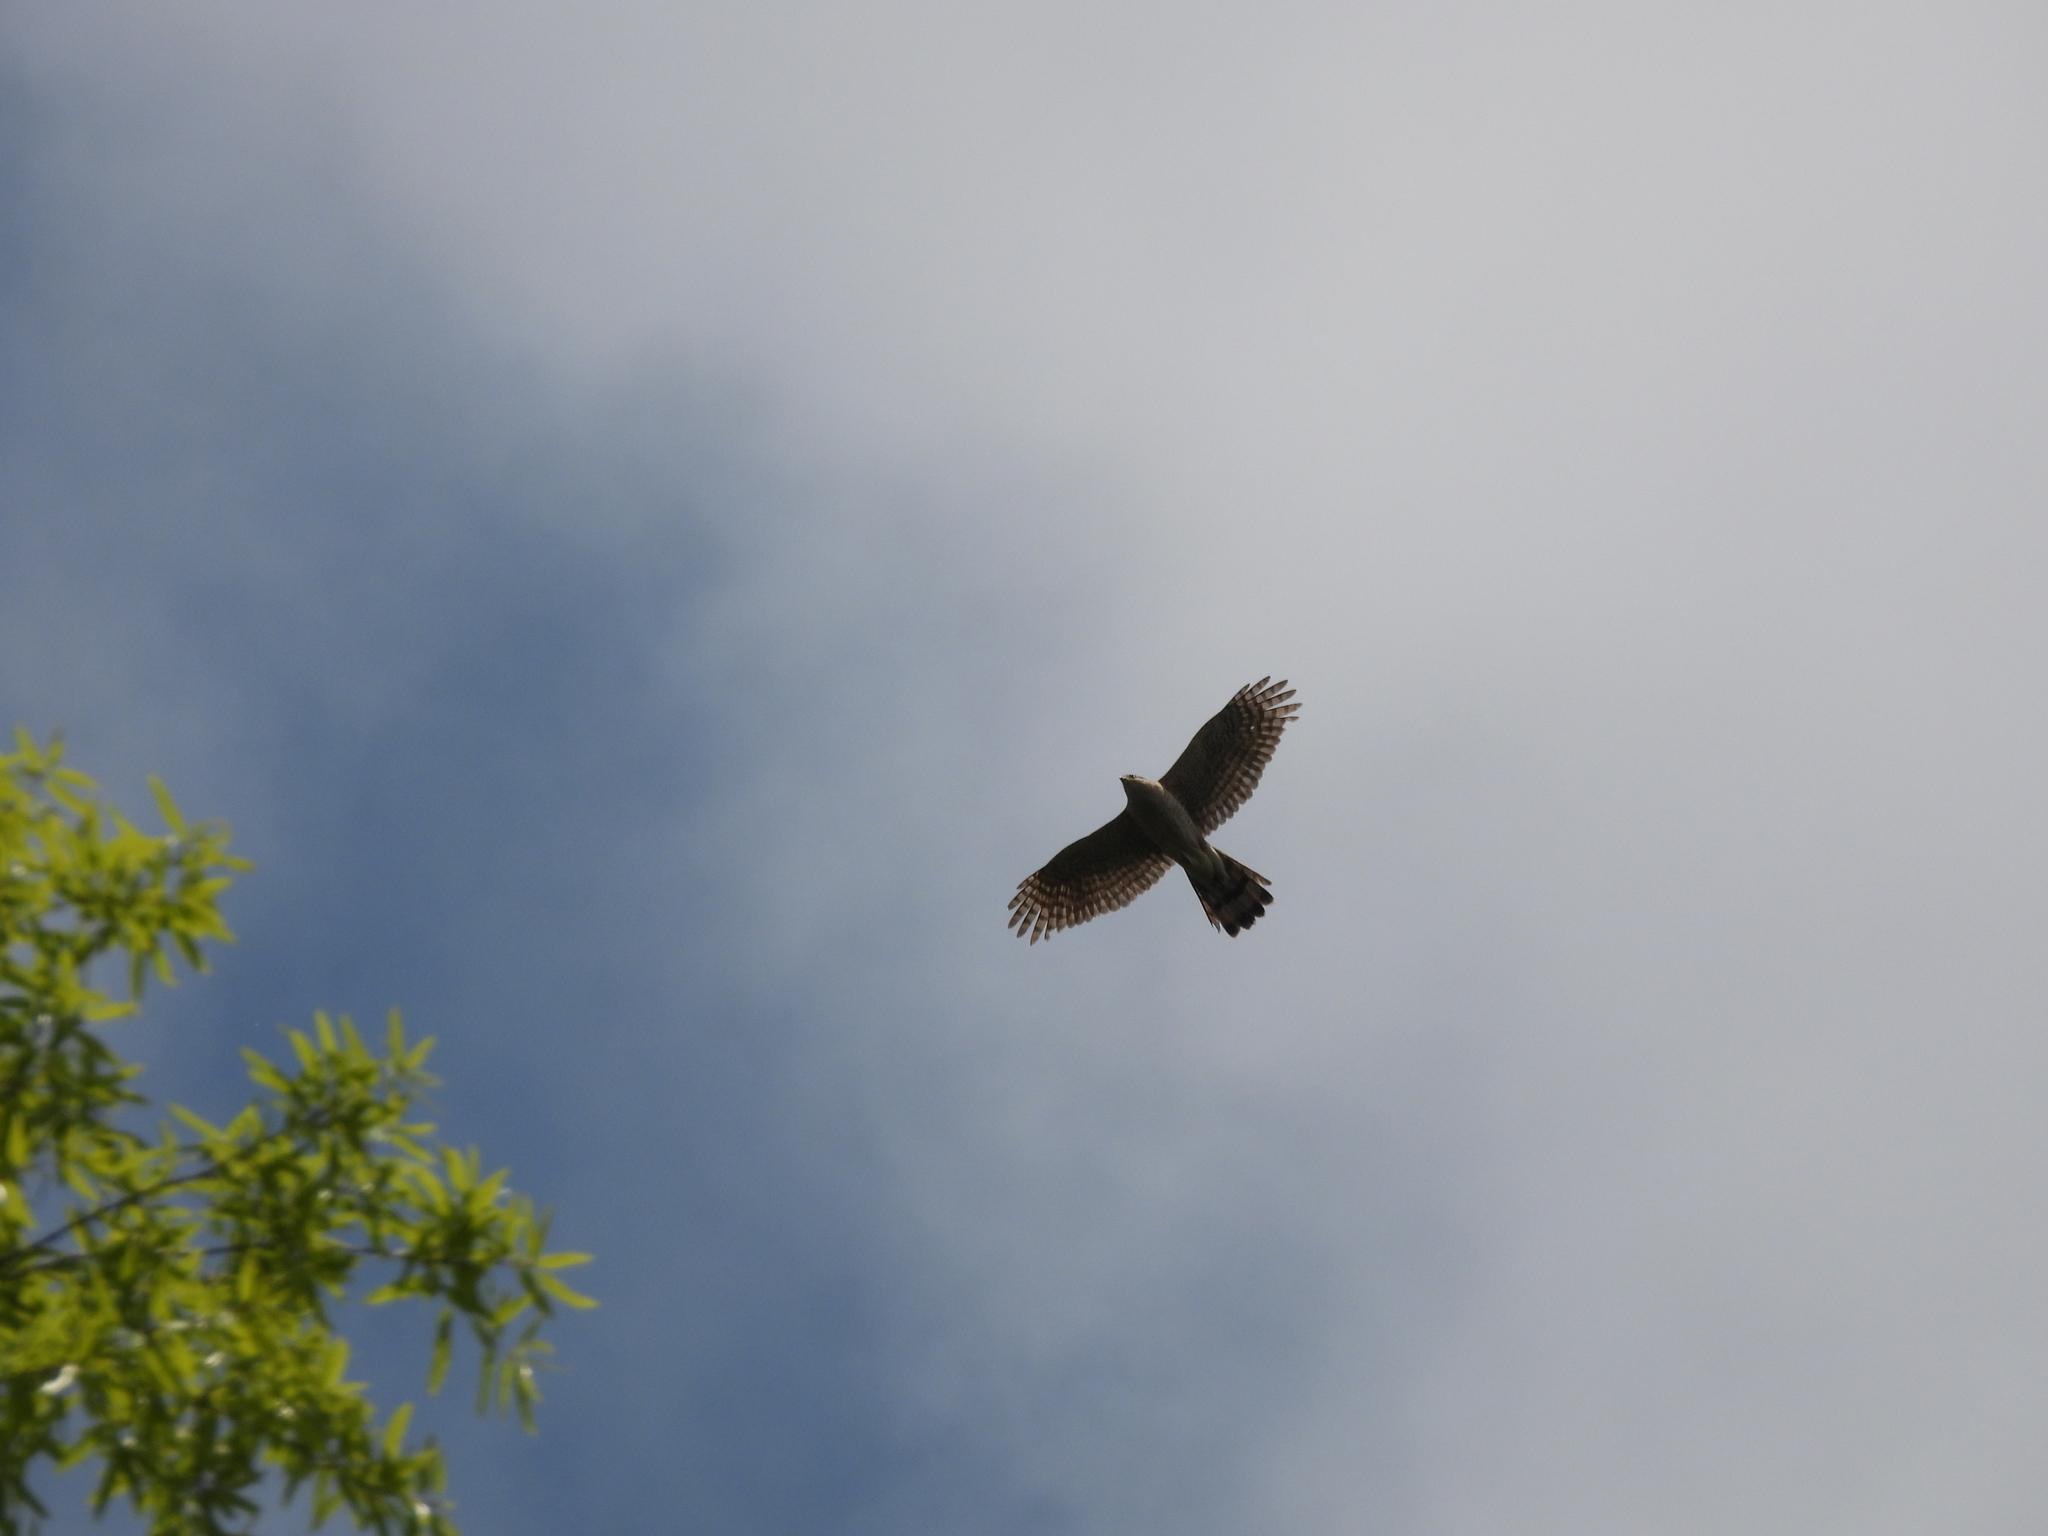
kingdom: Animalia
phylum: Chordata
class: Aves
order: Accipitriformes
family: Accipitridae
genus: Accipiter
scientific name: Accipiter cooperii
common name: Cooper's hawk
